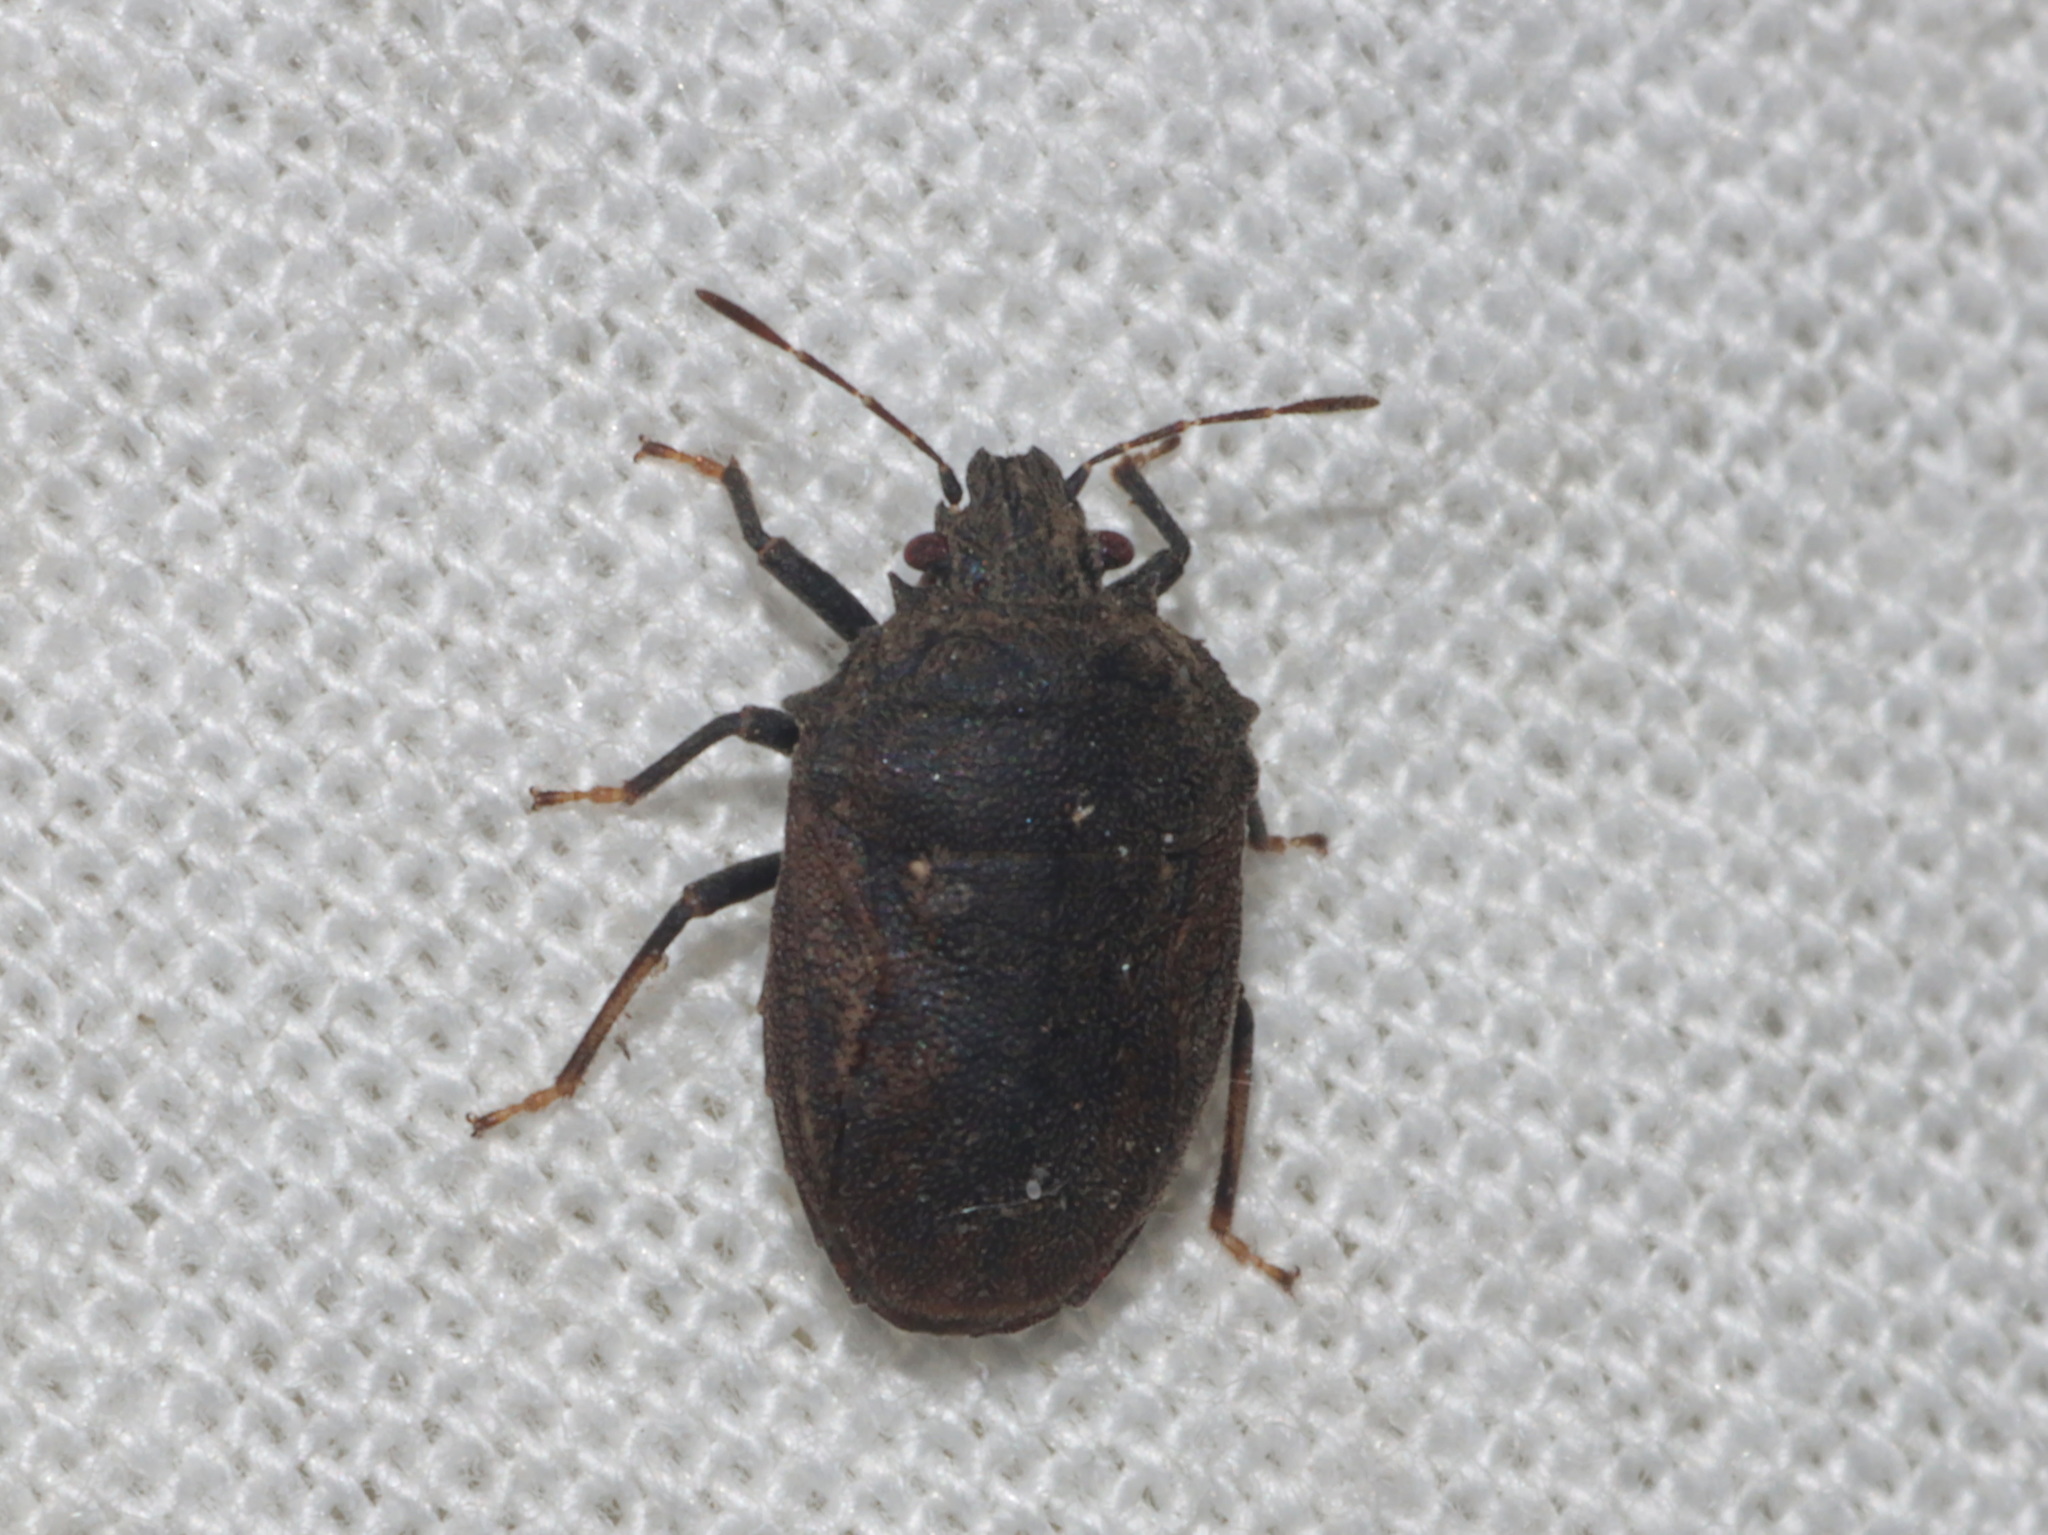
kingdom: Animalia
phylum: Arthropoda
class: Insecta
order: Hemiptera
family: Pentatomidae
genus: Scotinophara
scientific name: Scotinophara
